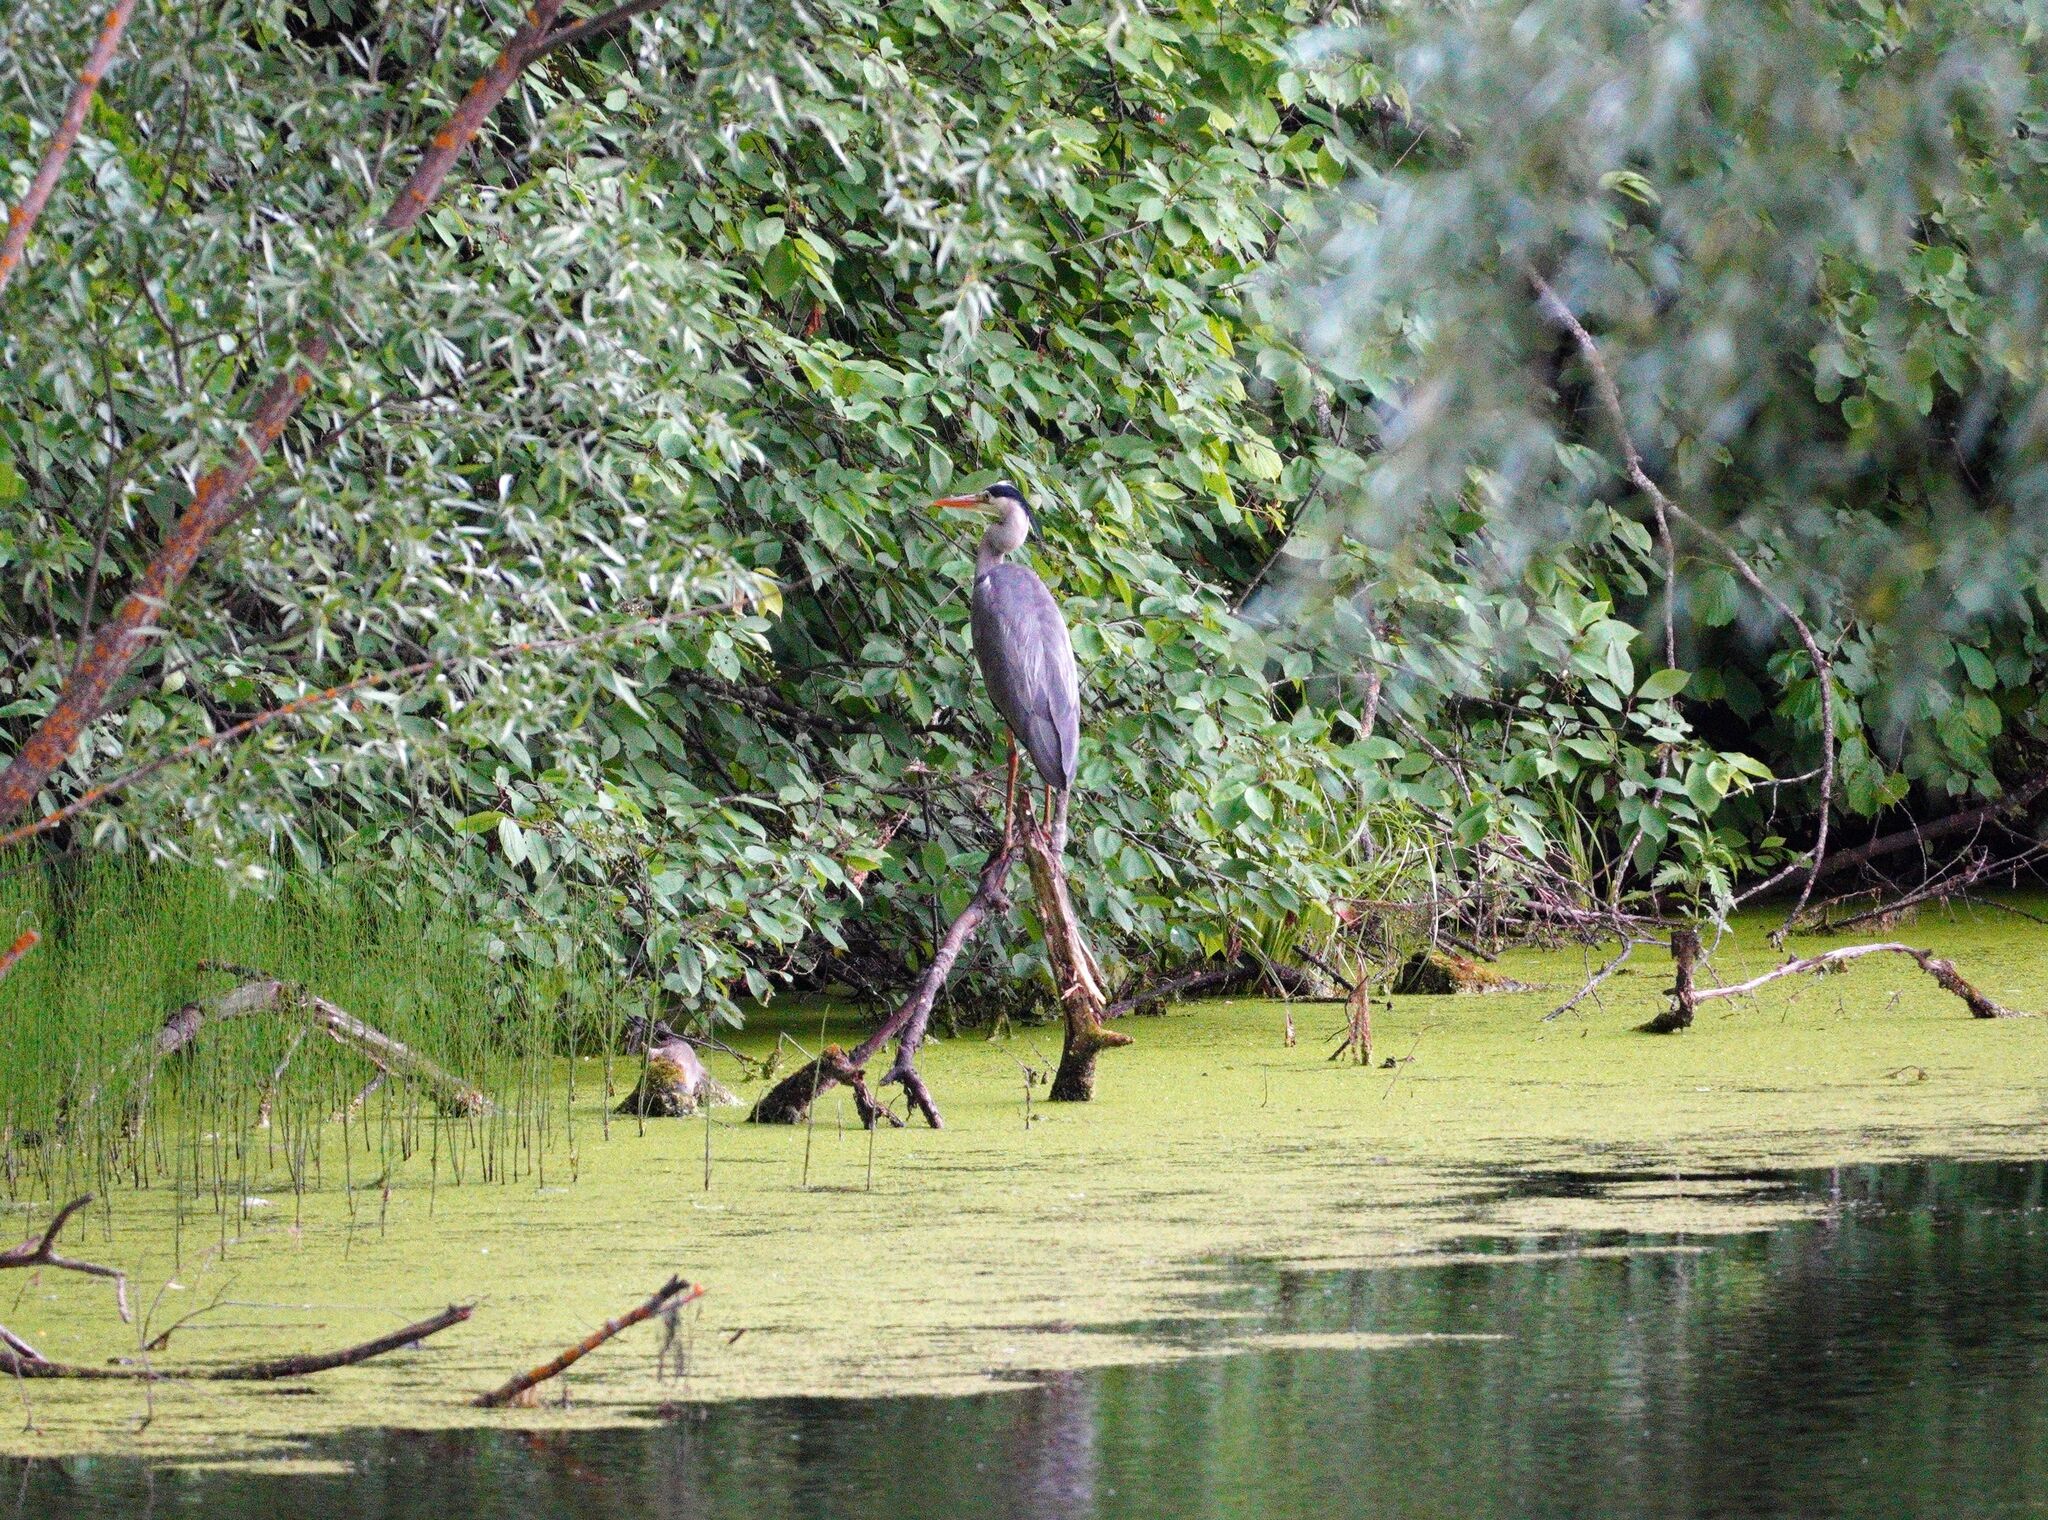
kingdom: Animalia
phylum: Chordata
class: Aves
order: Pelecaniformes
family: Ardeidae
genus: Ardea
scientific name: Ardea cinerea
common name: Grey heron
